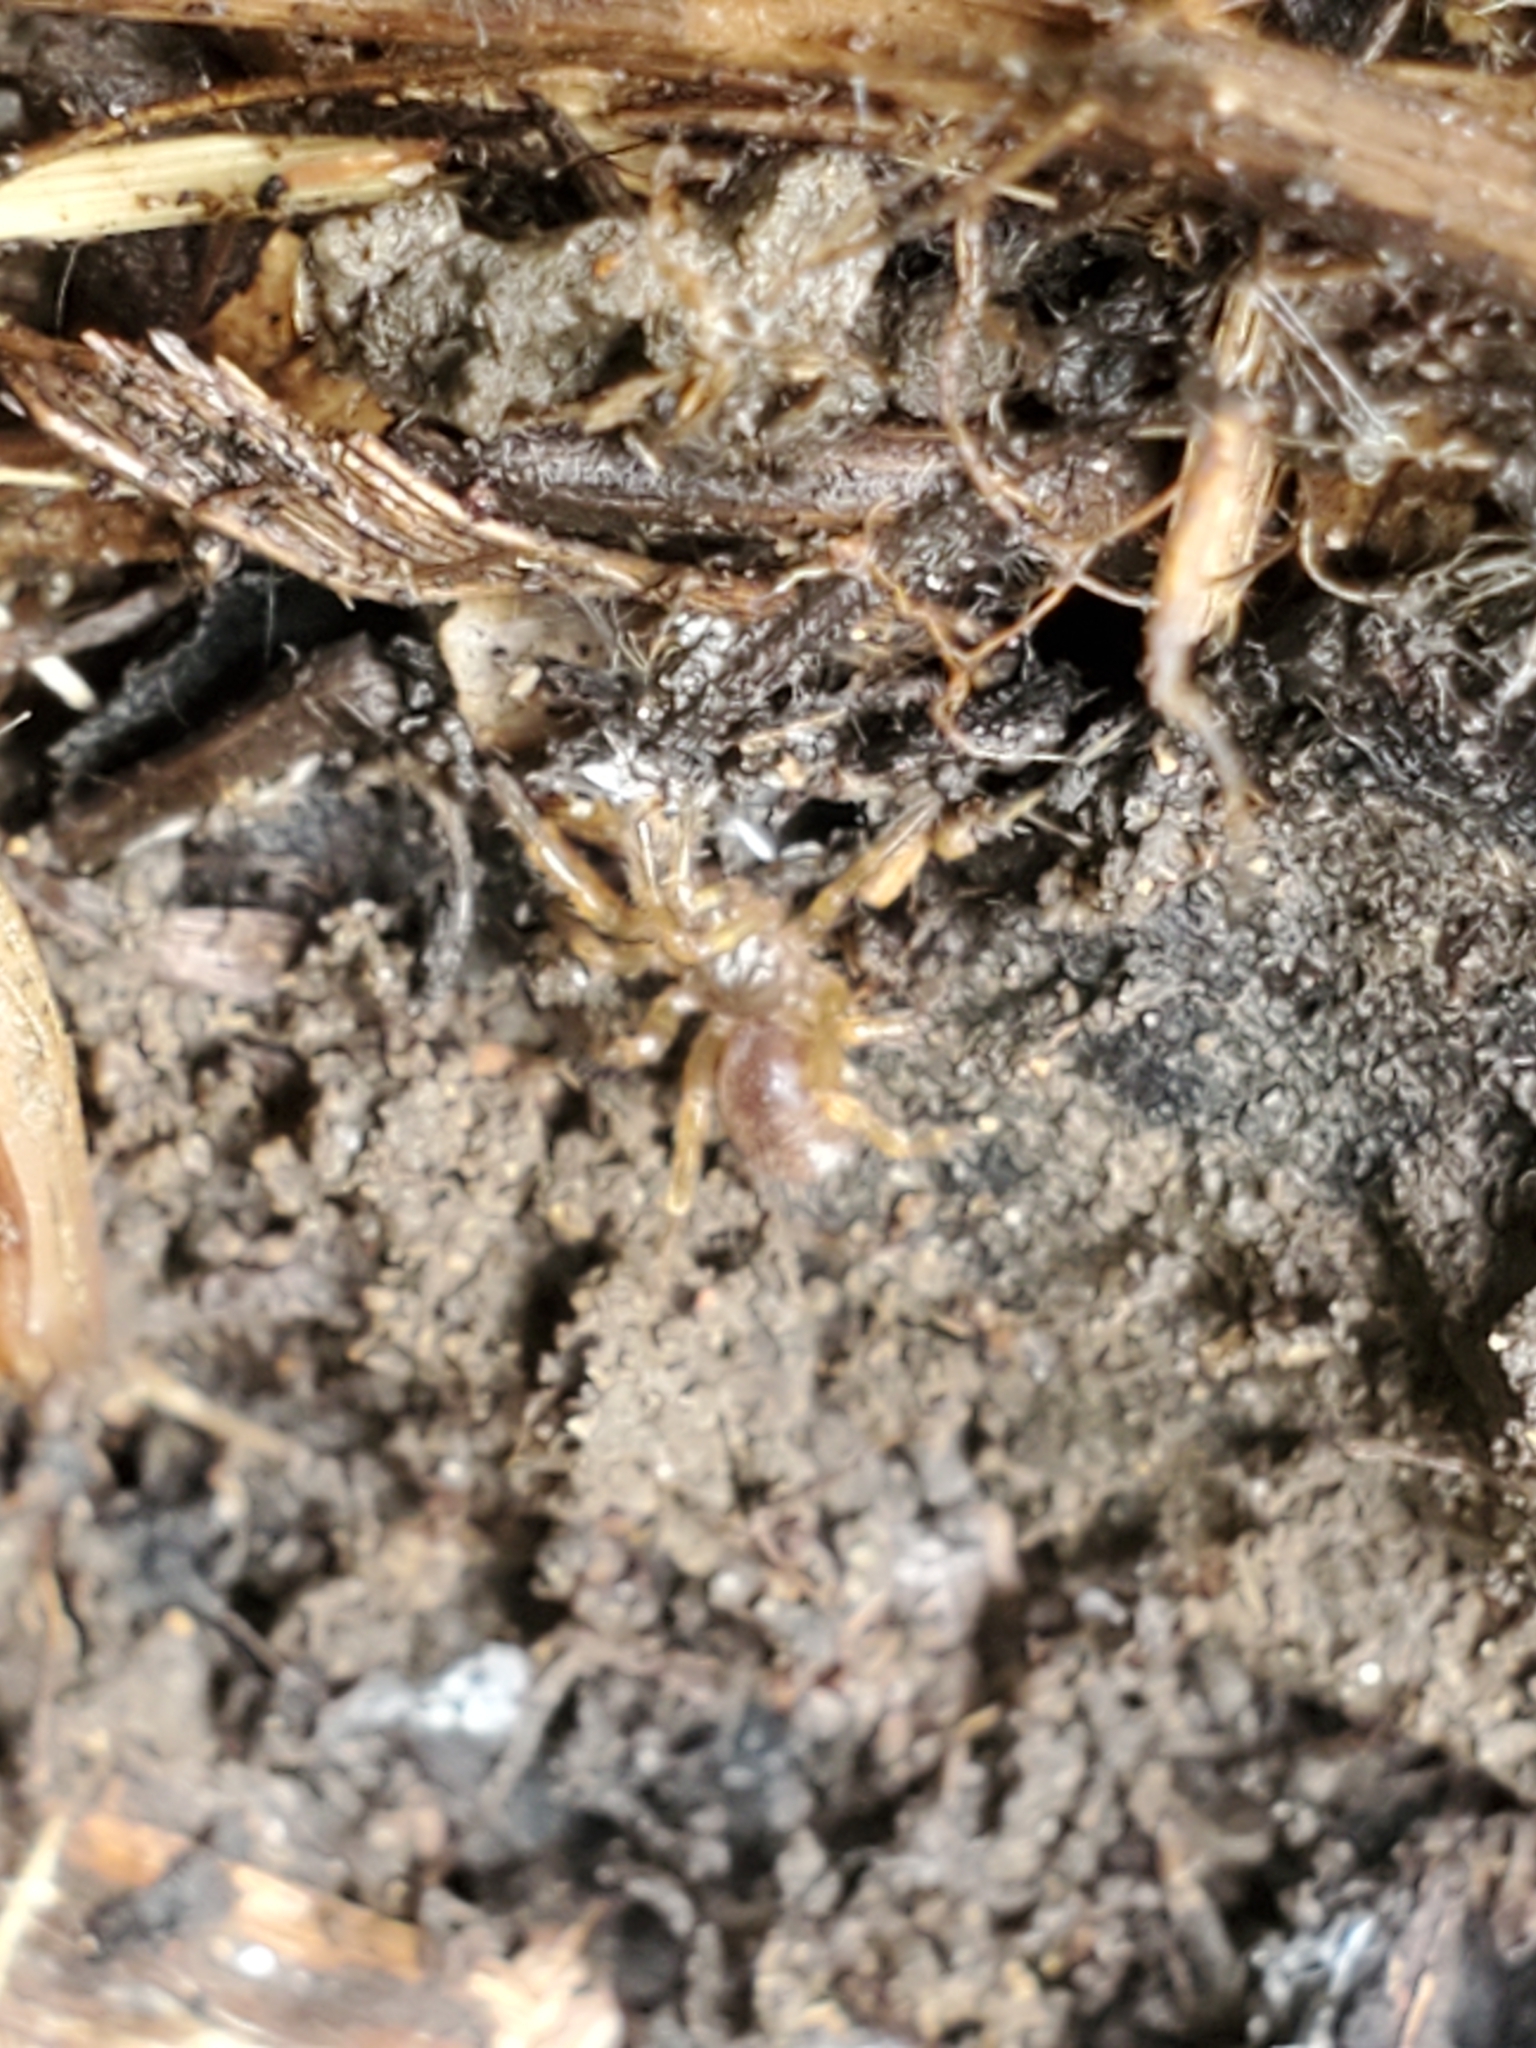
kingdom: Animalia
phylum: Arthropoda
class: Arachnida
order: Araneae
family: Euctenizidae
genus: Aptostichus
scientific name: Aptostichus
